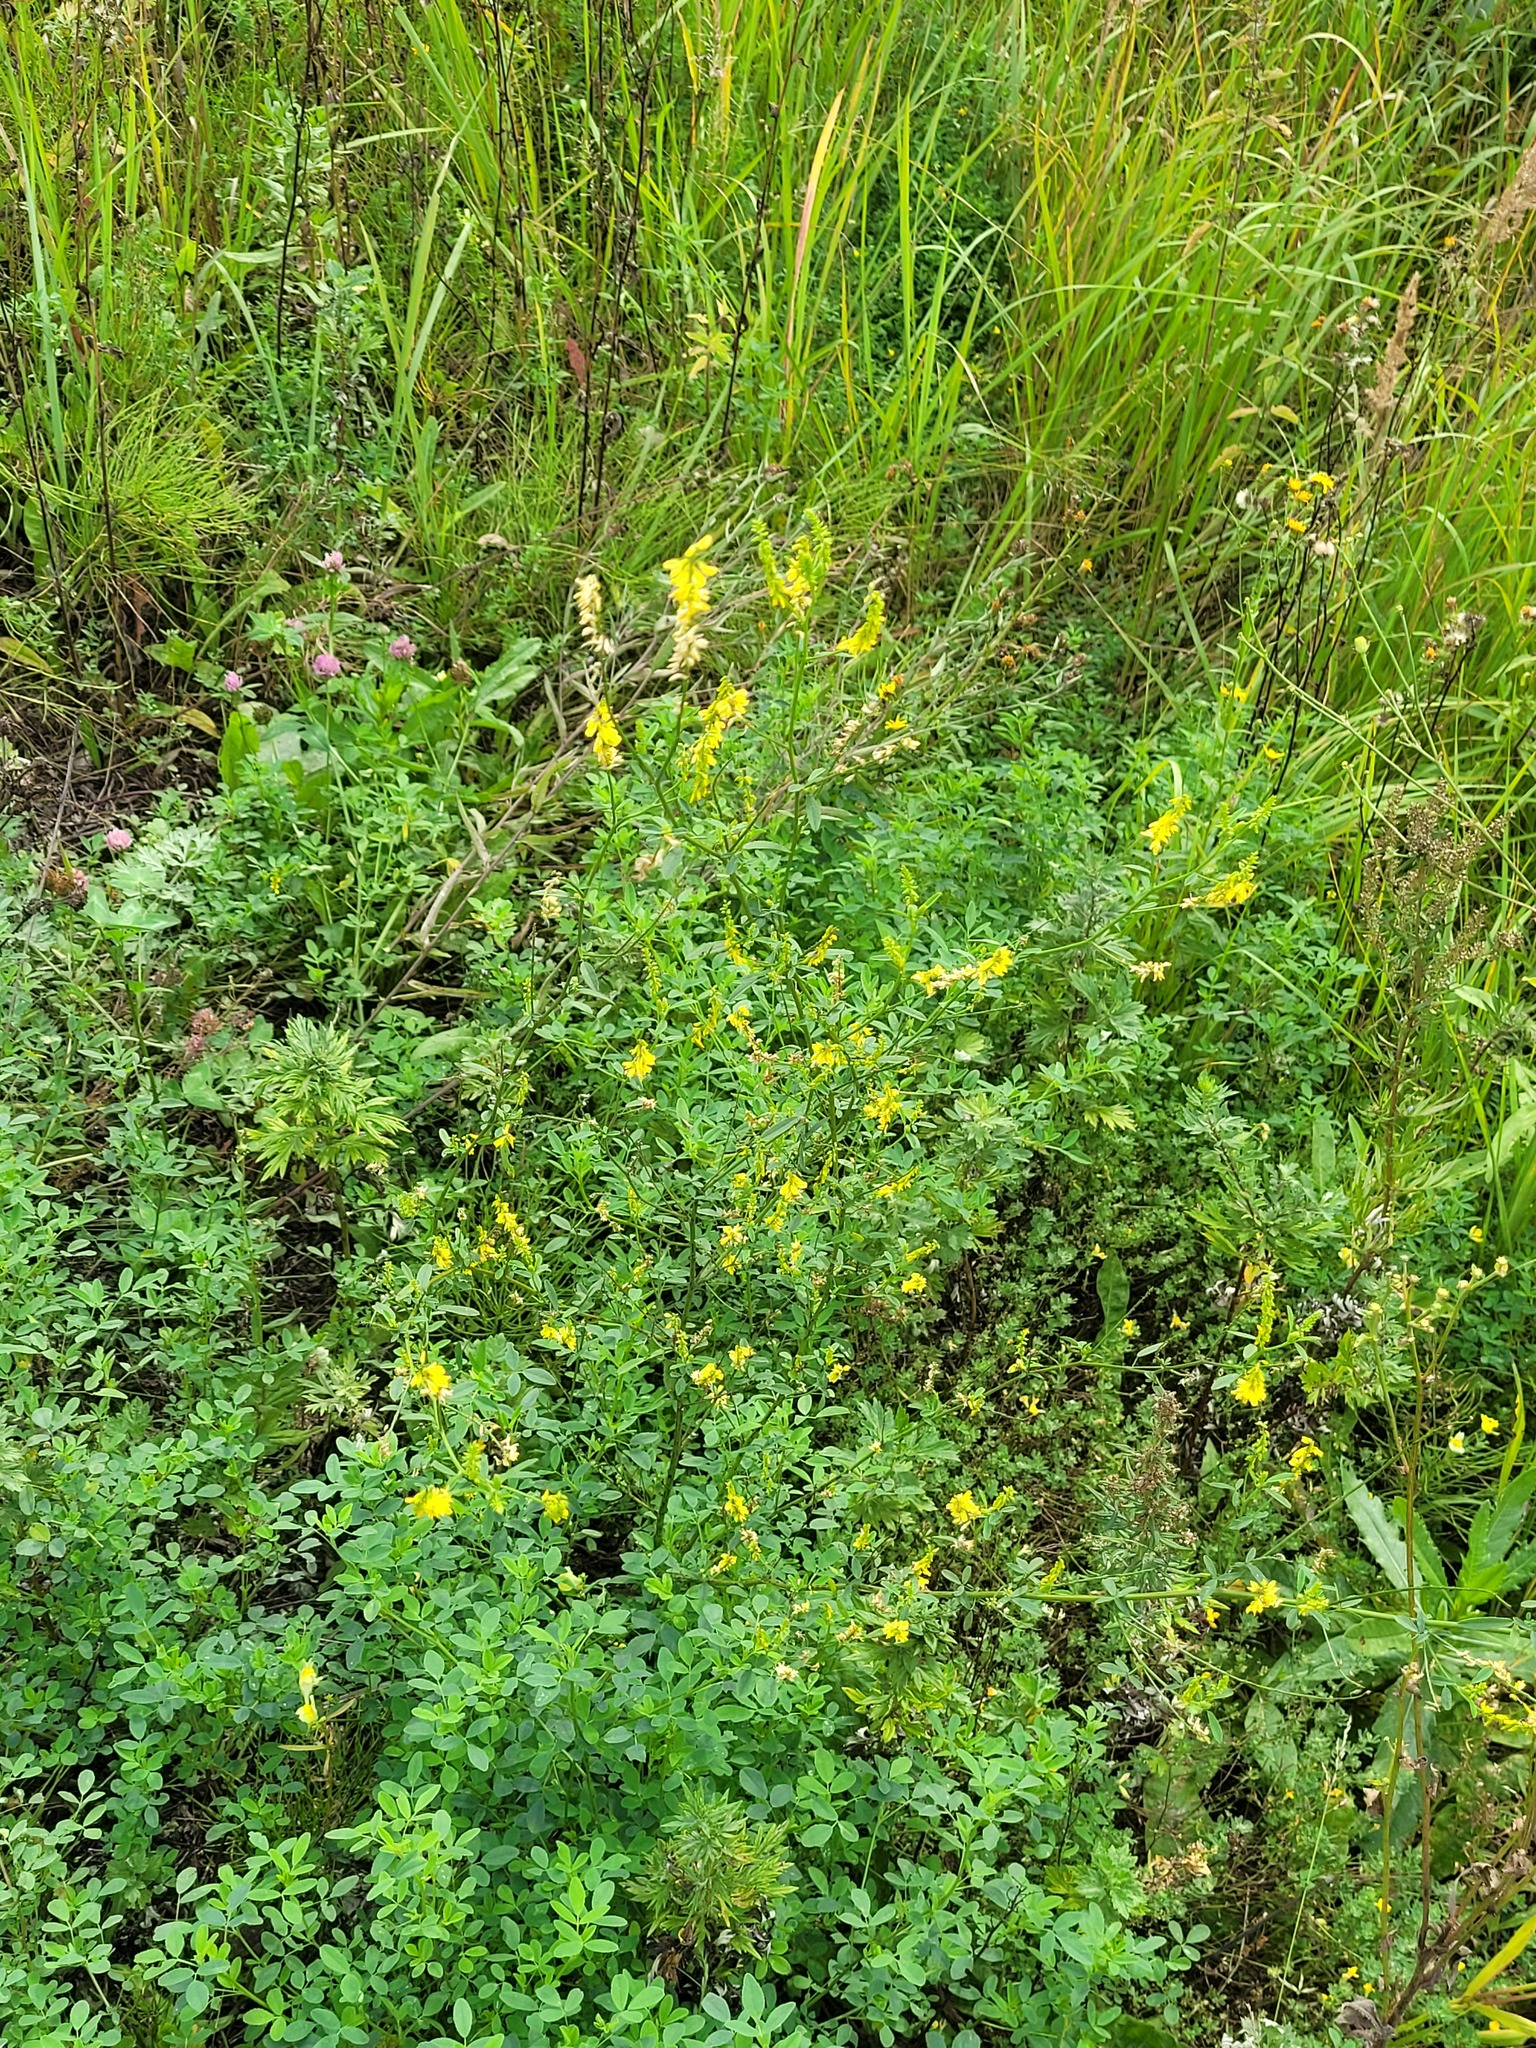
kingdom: Plantae
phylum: Tracheophyta
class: Magnoliopsida
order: Fabales
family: Fabaceae
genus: Melilotus
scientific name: Melilotus officinalis
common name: Sweetclover
